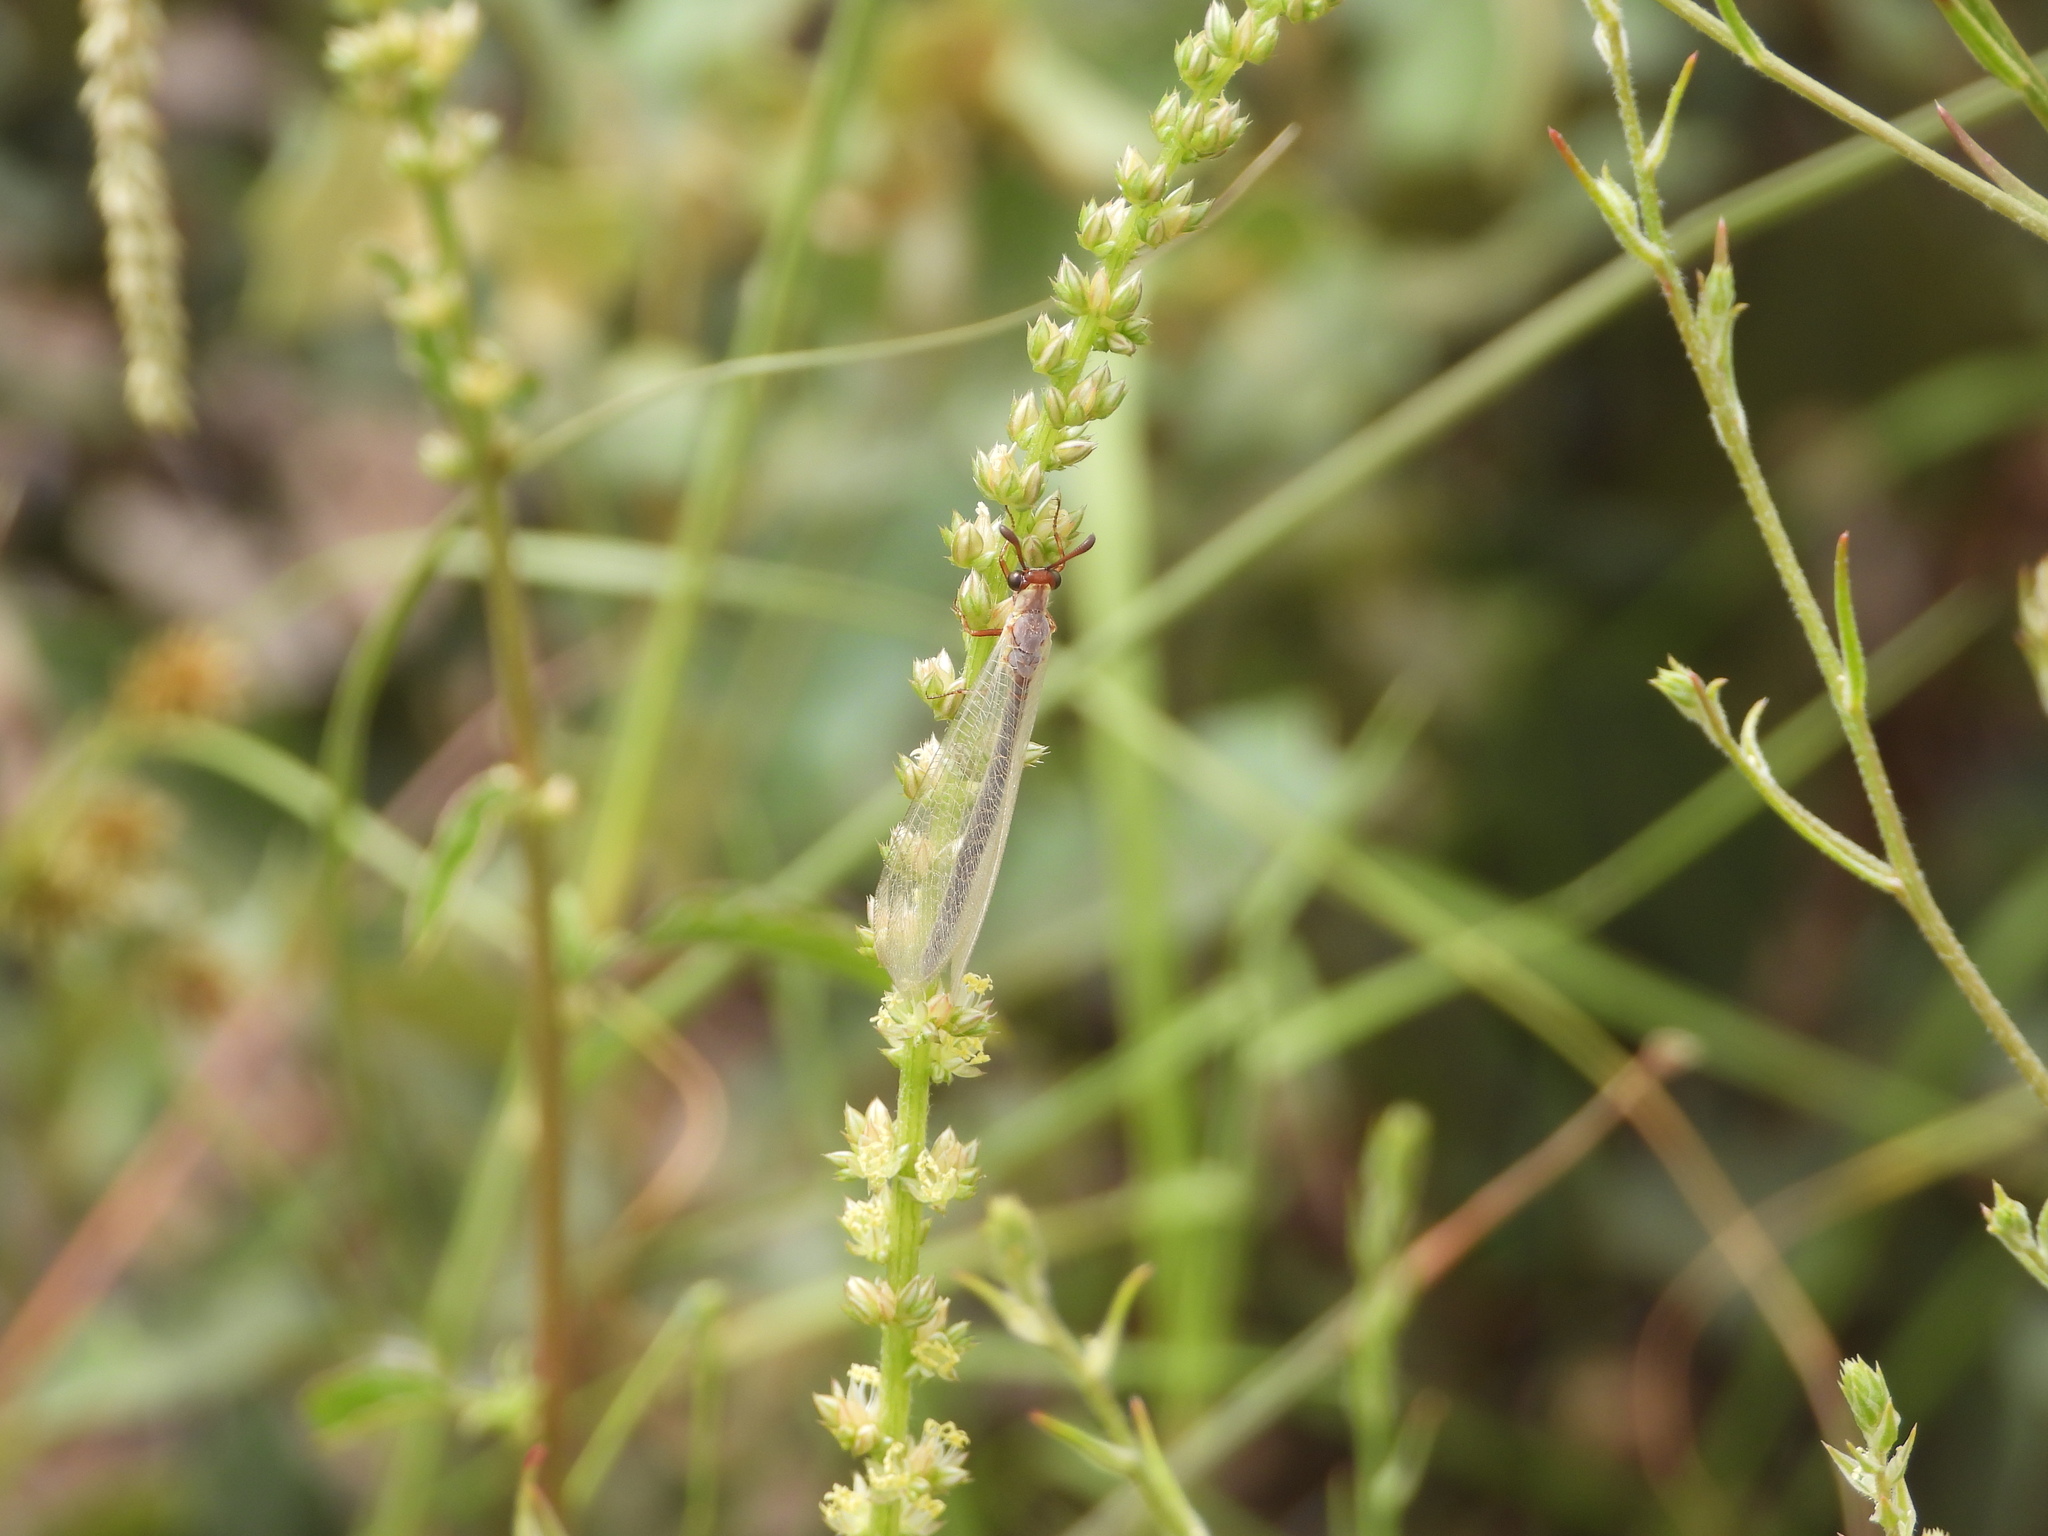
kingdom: Animalia
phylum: Arthropoda
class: Insecta
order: Neuroptera
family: Myrmeleontidae
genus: Myrmeleon
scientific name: Myrmeleon texanus
